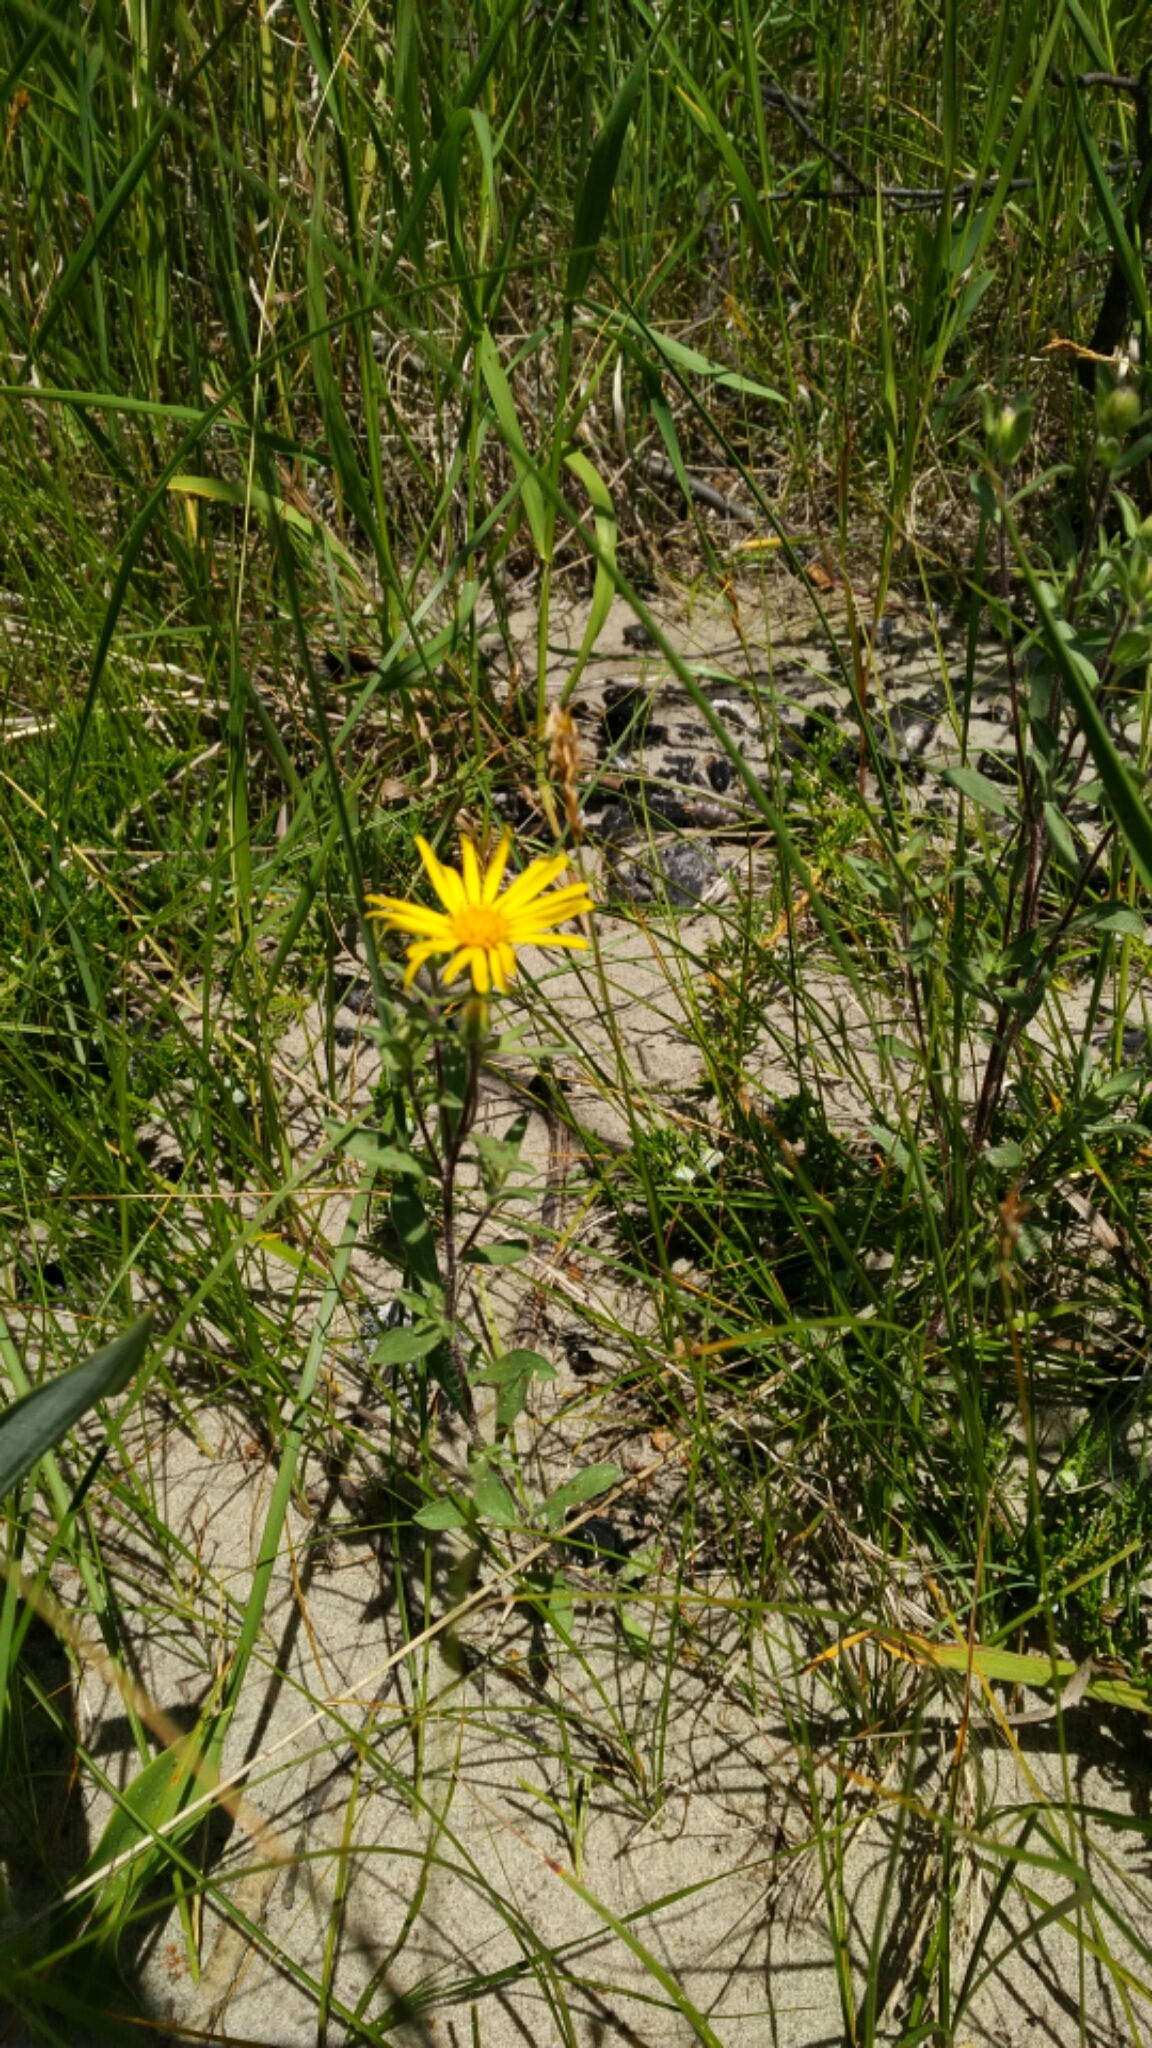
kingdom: Plantae
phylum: Tracheophyta
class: Magnoliopsida
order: Asterales
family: Asteraceae
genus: Heterotheca
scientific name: Heterotheca villosa
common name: Hairy false goldenaster
